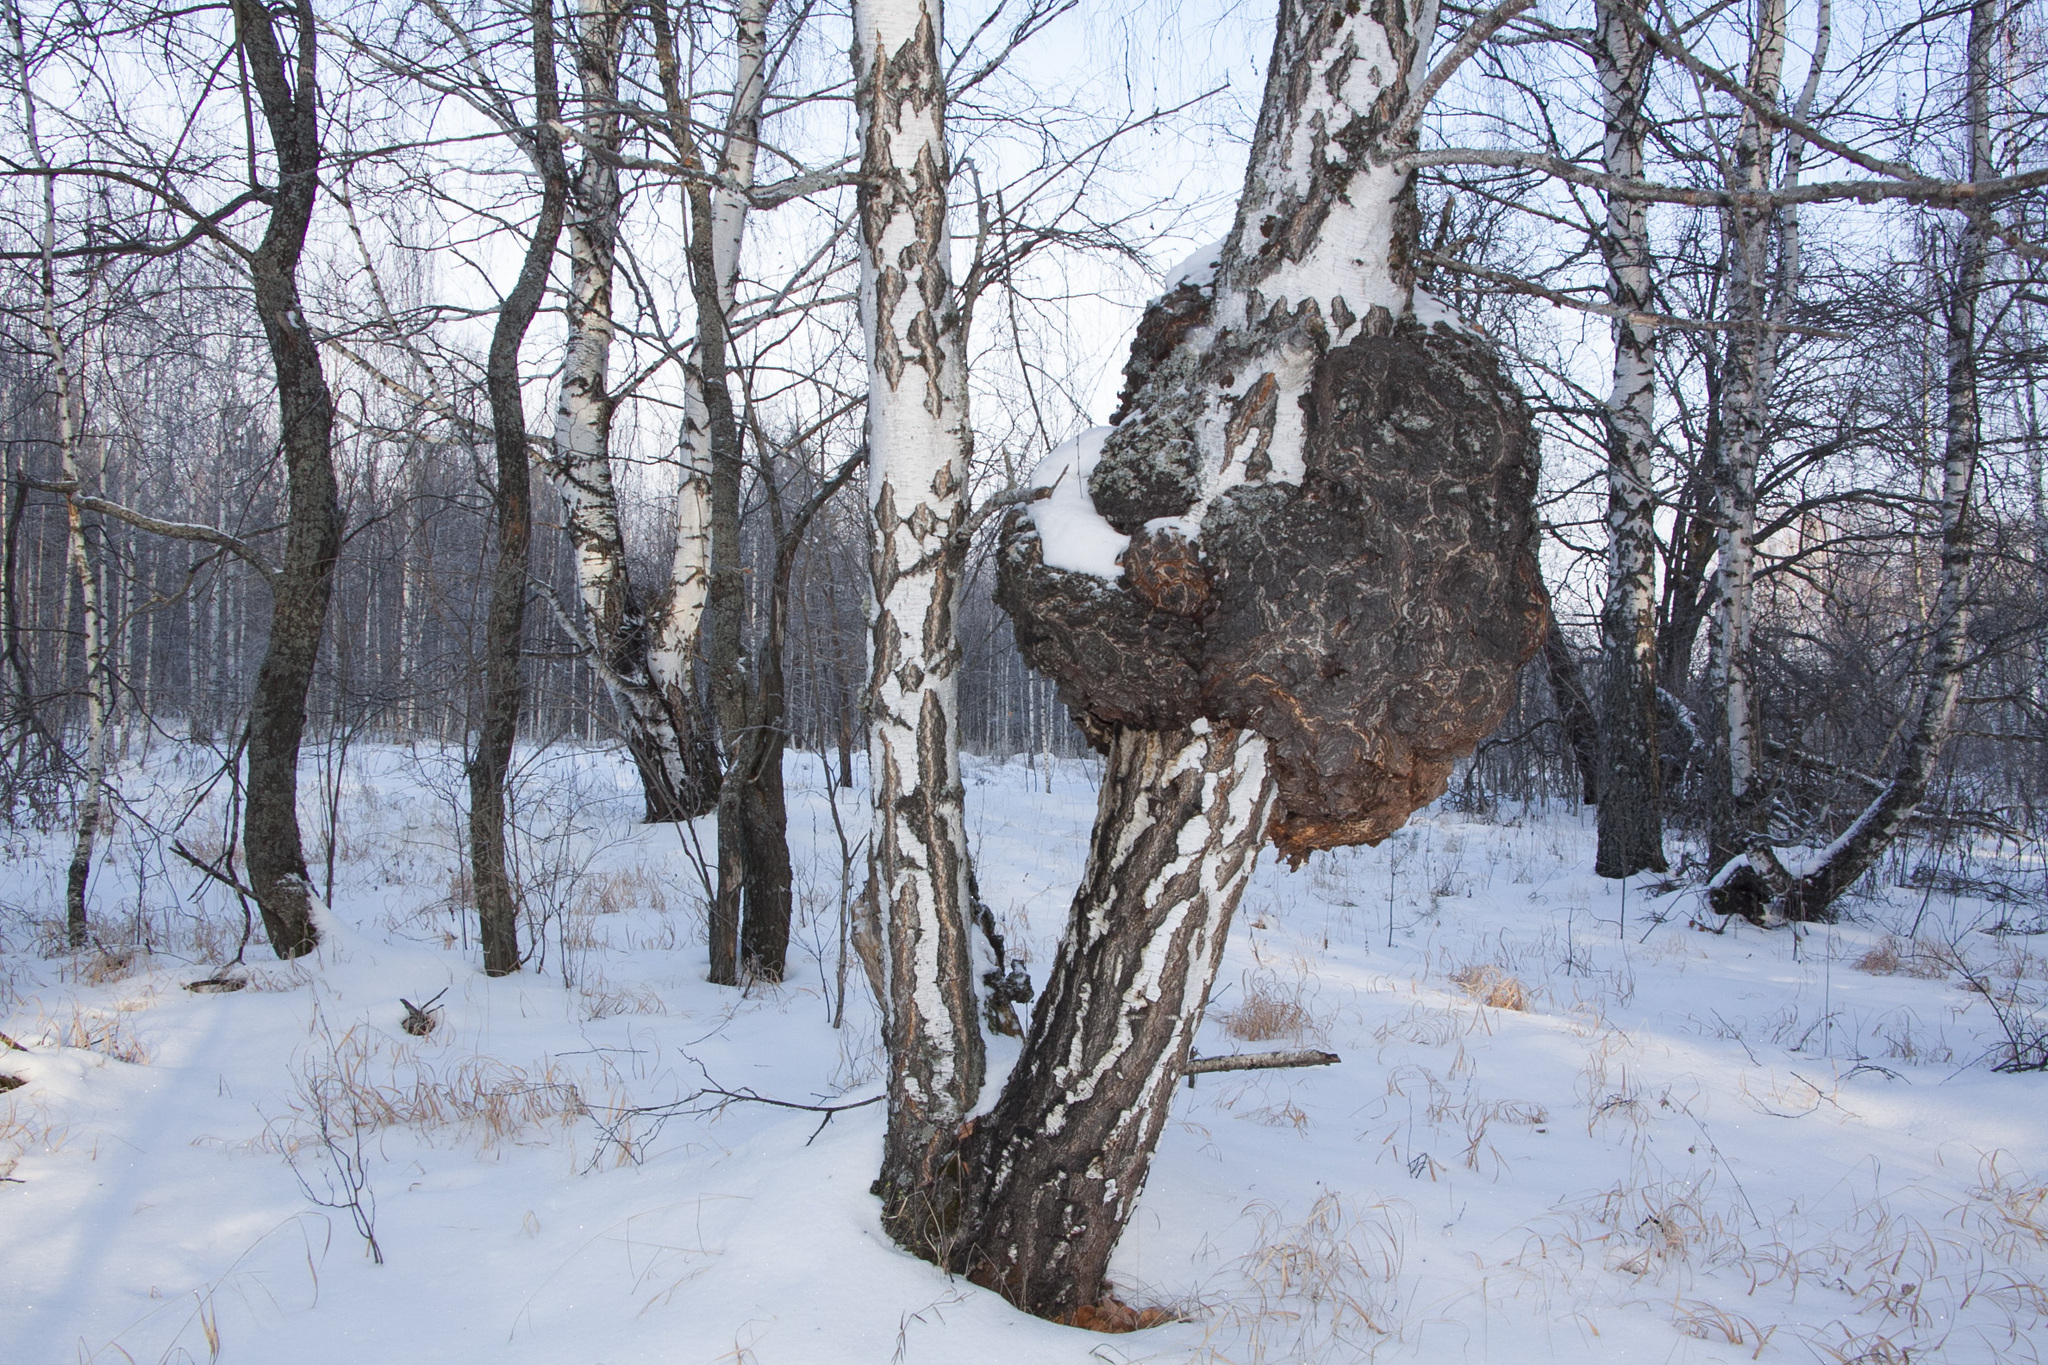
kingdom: Plantae
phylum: Tracheophyta
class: Magnoliopsida
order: Fagales
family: Betulaceae
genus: Betula
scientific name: Betula pendula
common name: Silver birch
